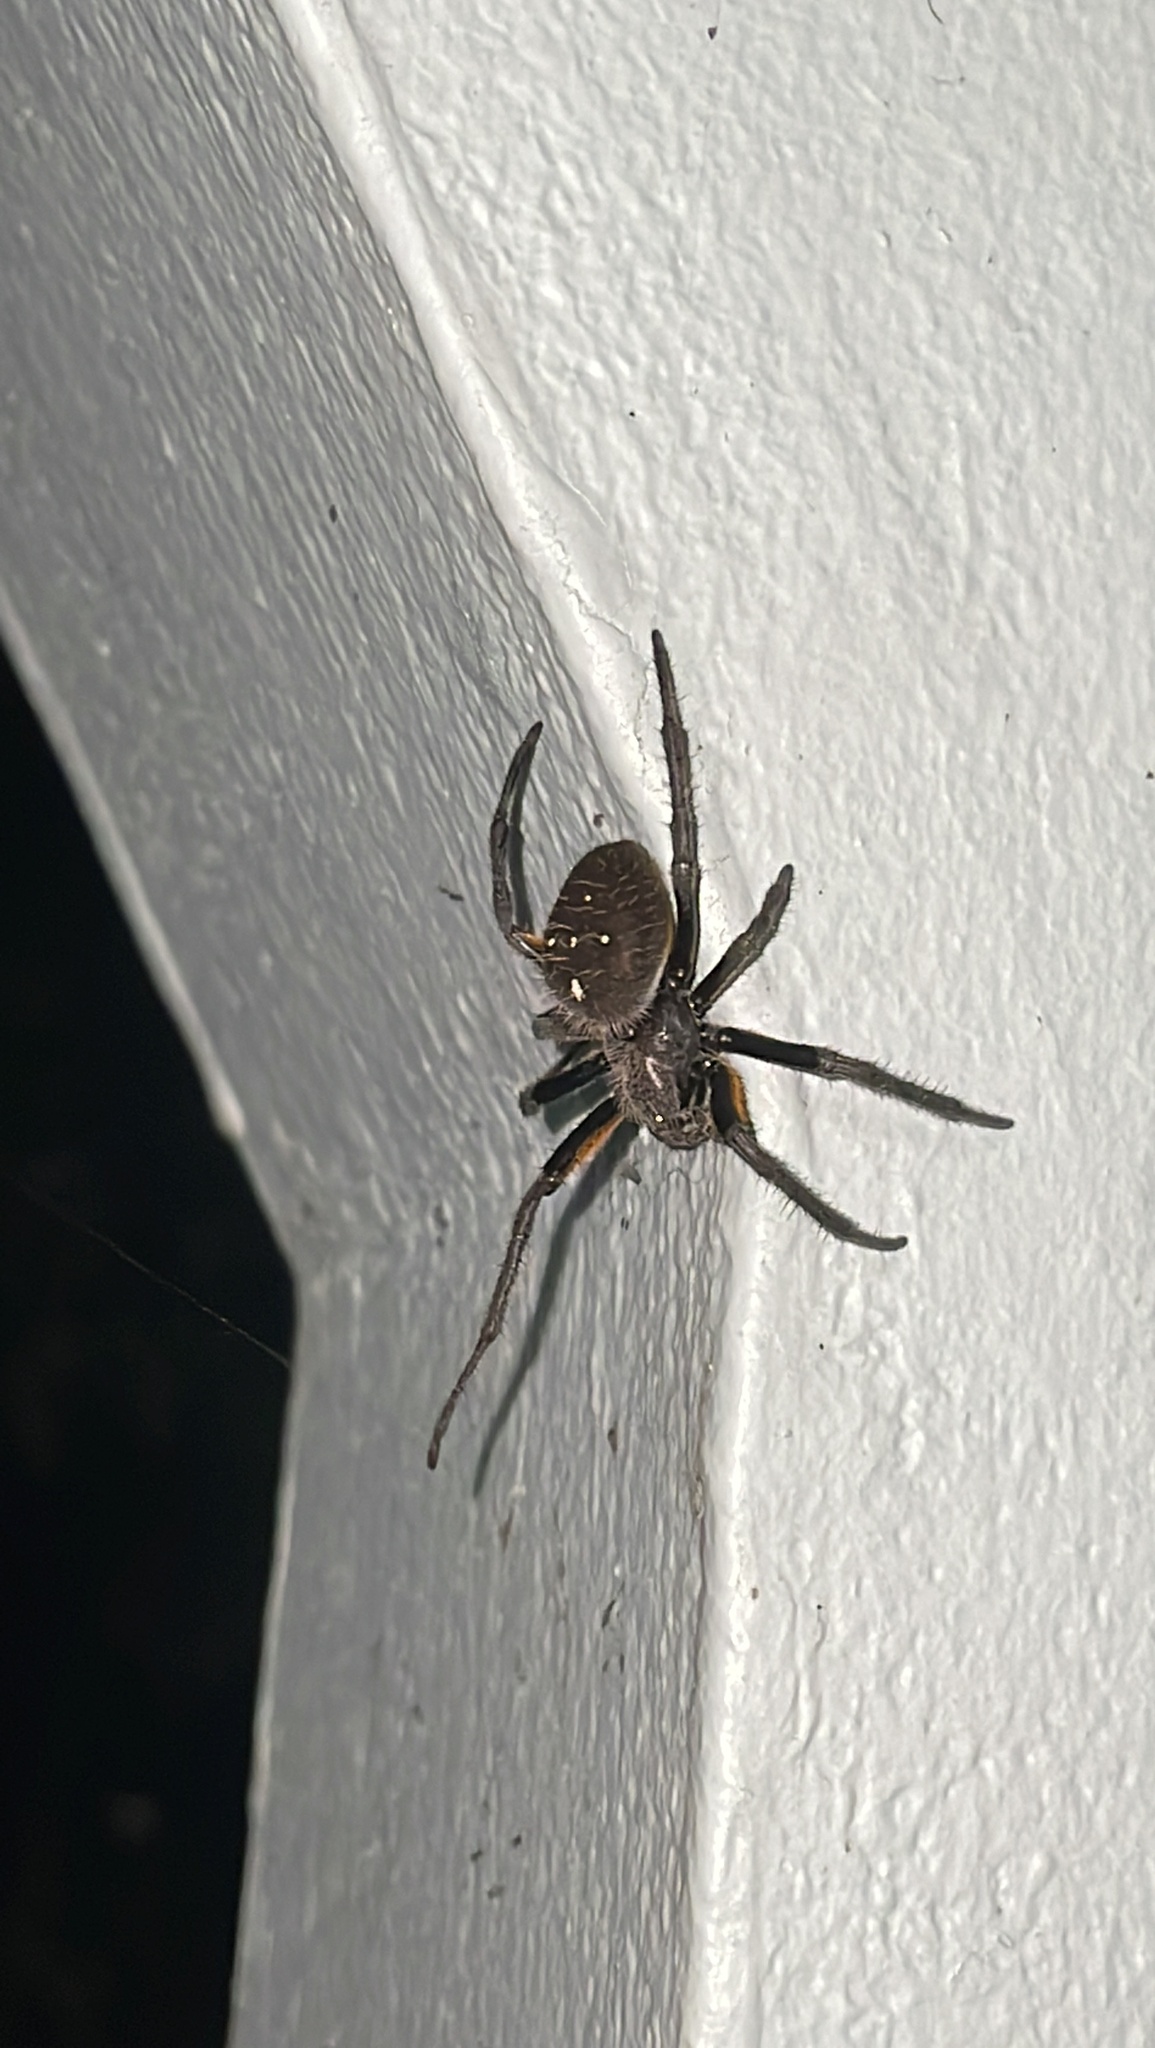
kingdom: Animalia
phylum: Arthropoda
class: Arachnida
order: Araneae
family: Araneidae
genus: Eriophora
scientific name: Eriophora fuliginea
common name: Orb weavers
